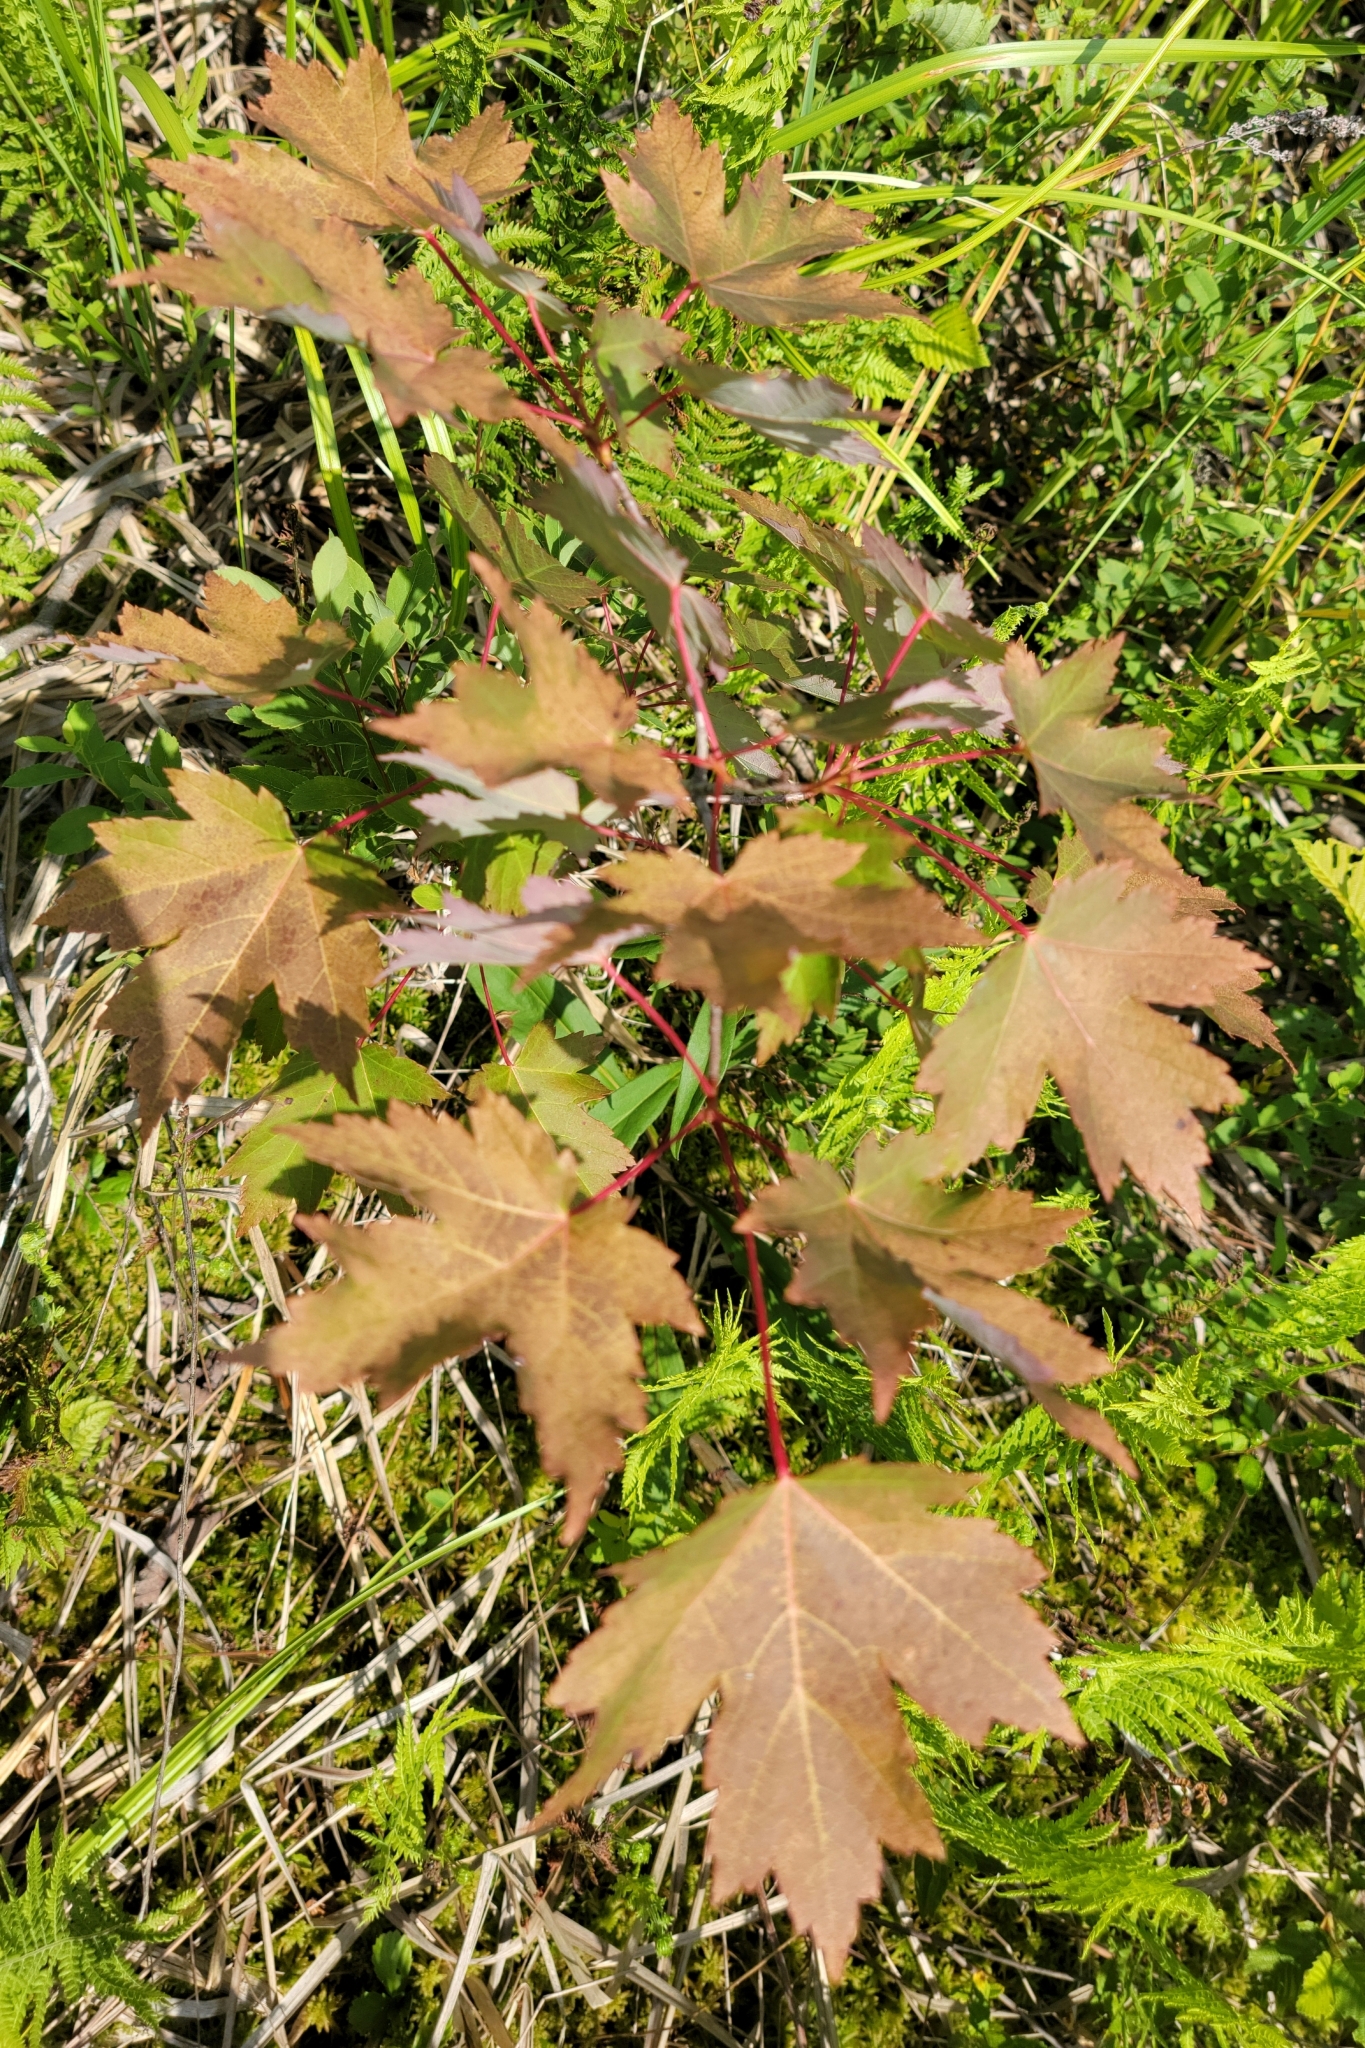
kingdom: Plantae
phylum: Tracheophyta
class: Magnoliopsida
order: Sapindales
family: Sapindaceae
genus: Acer
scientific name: Acer rubrum
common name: Red maple
